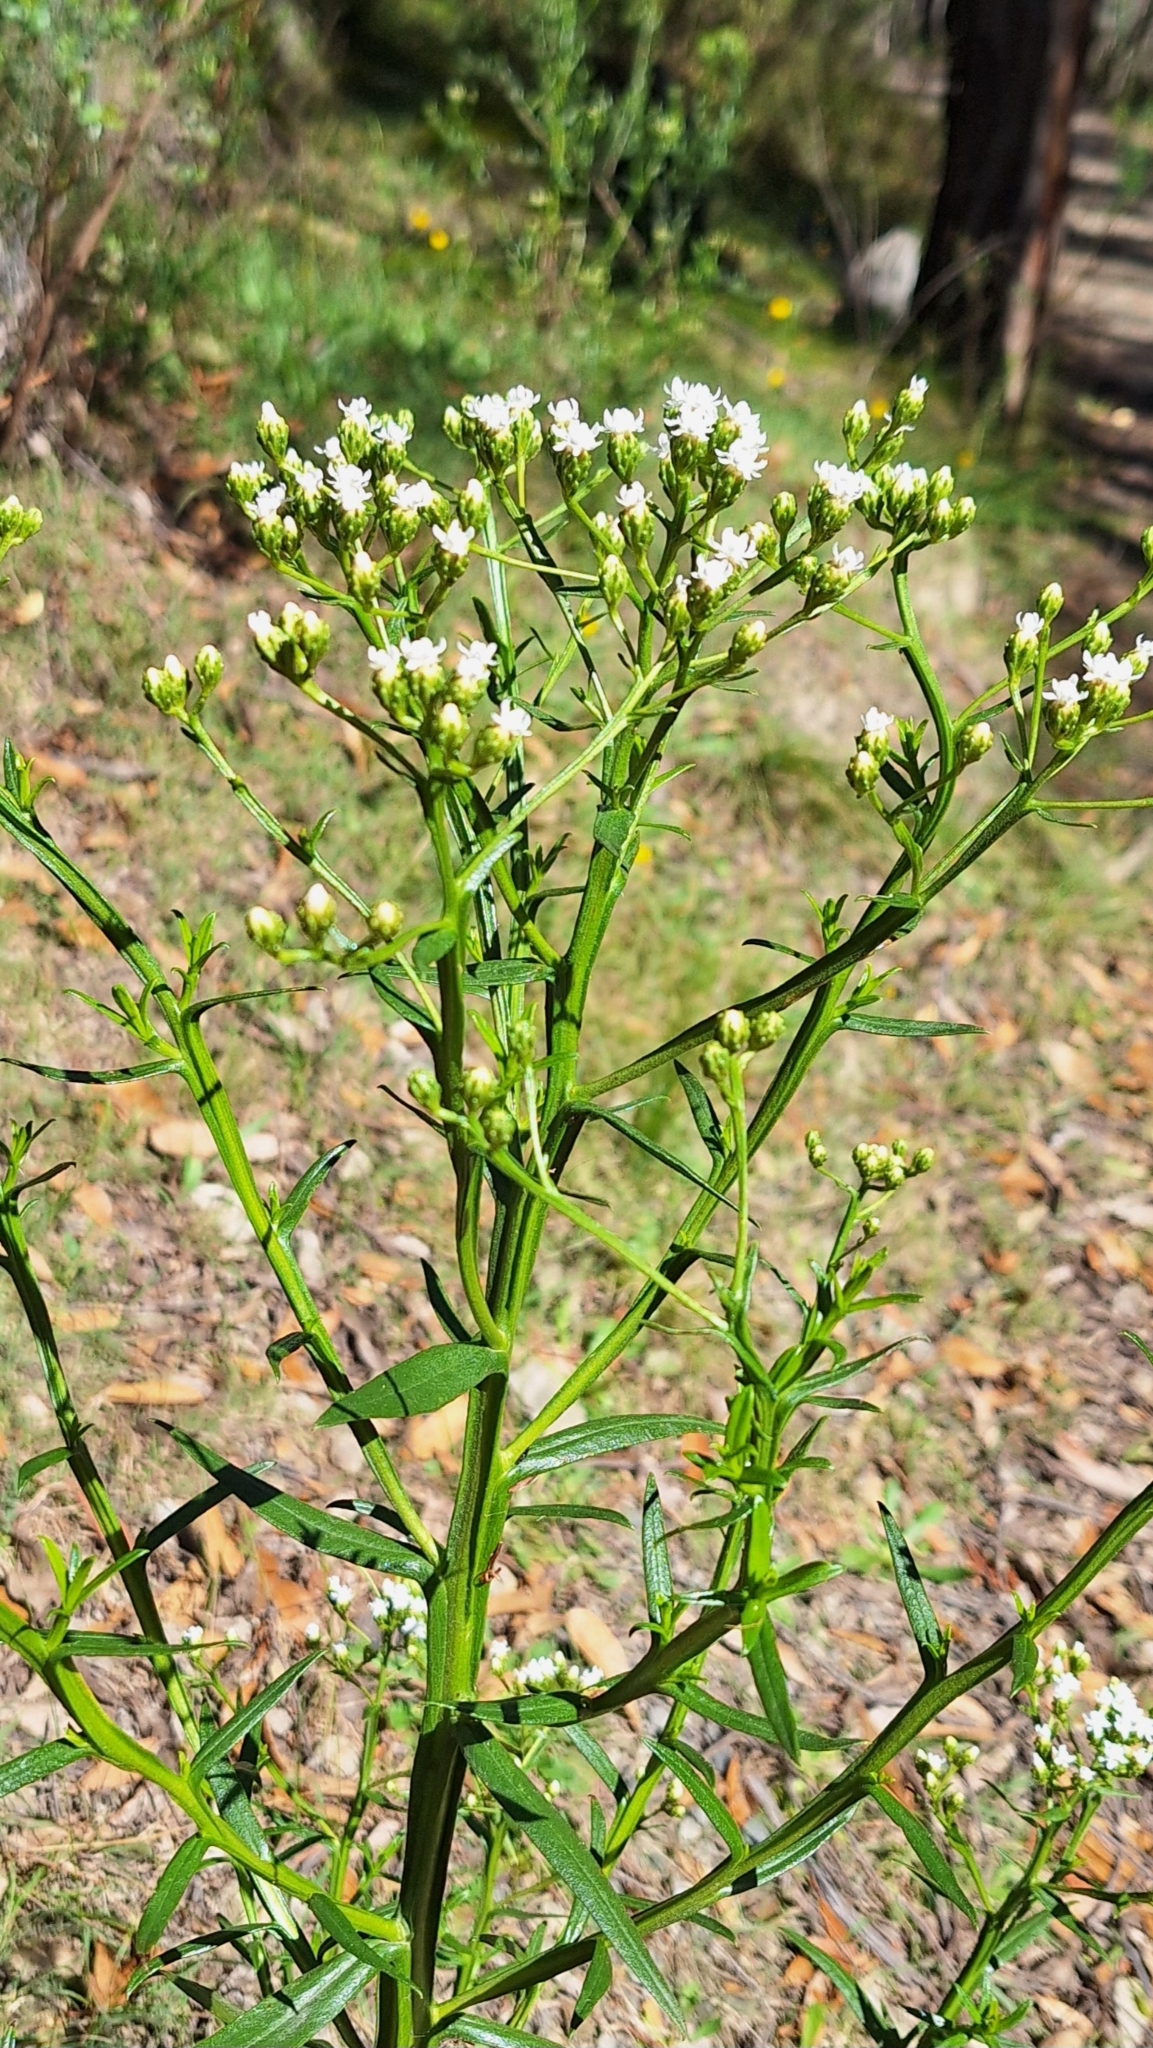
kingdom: Plantae
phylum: Tracheophyta
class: Magnoliopsida
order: Asterales
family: Asteraceae
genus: Ixodia
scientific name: Ixodia achillaeoides
